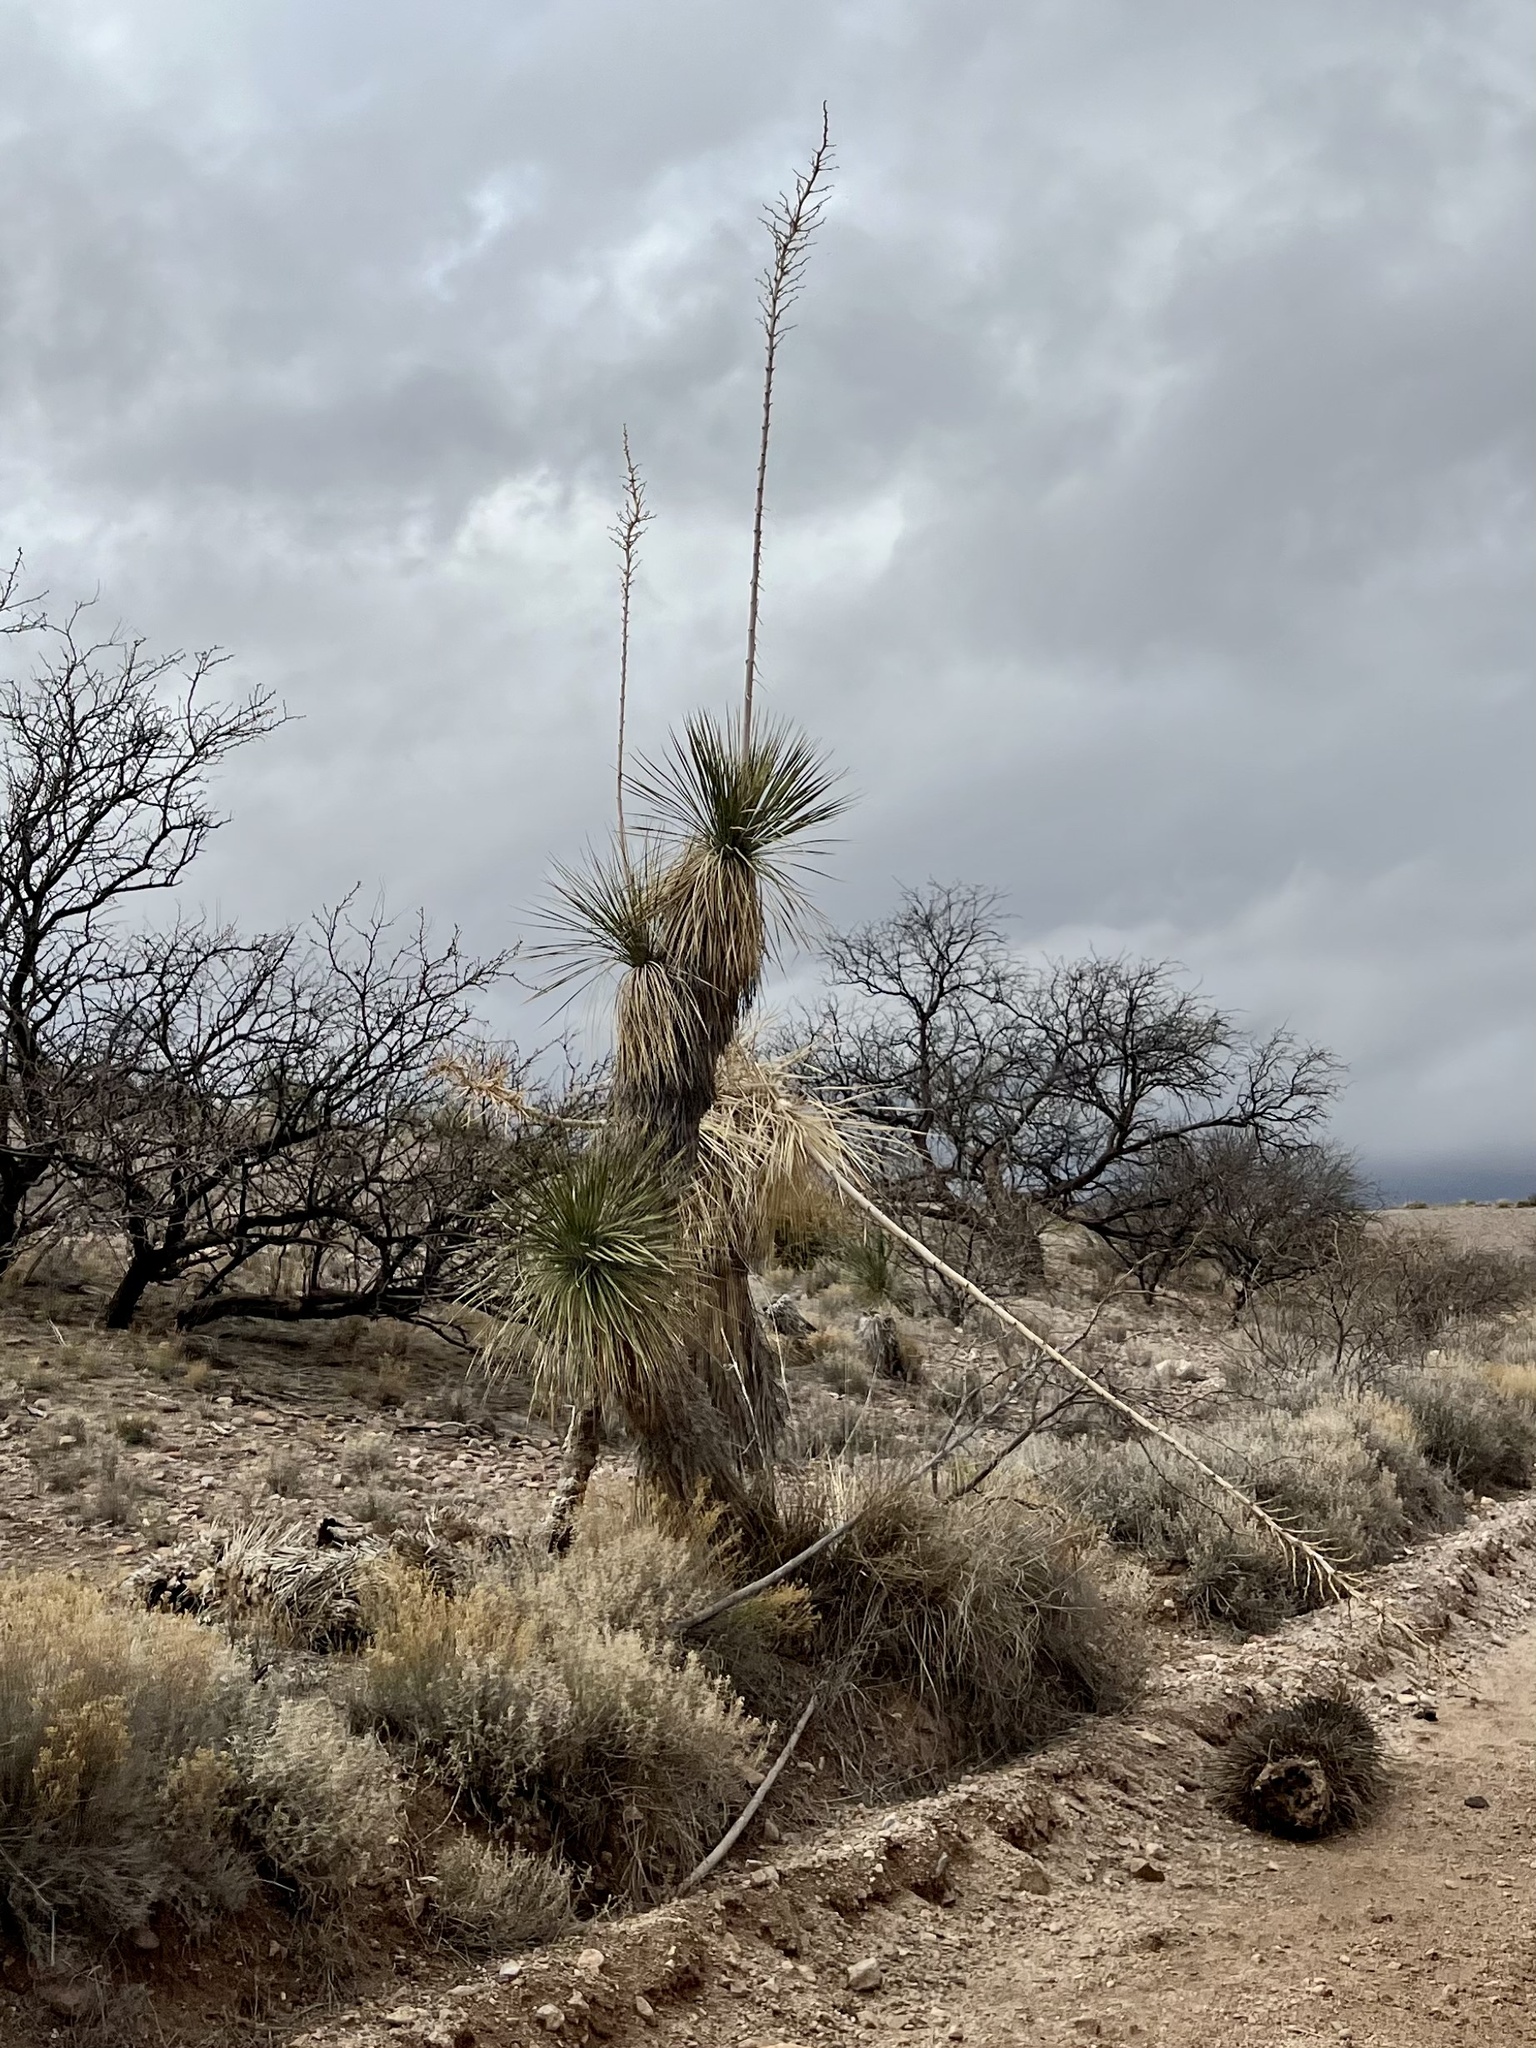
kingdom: Plantae
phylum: Tracheophyta
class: Liliopsida
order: Asparagales
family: Asparagaceae
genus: Yucca
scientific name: Yucca elata
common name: Palmella
